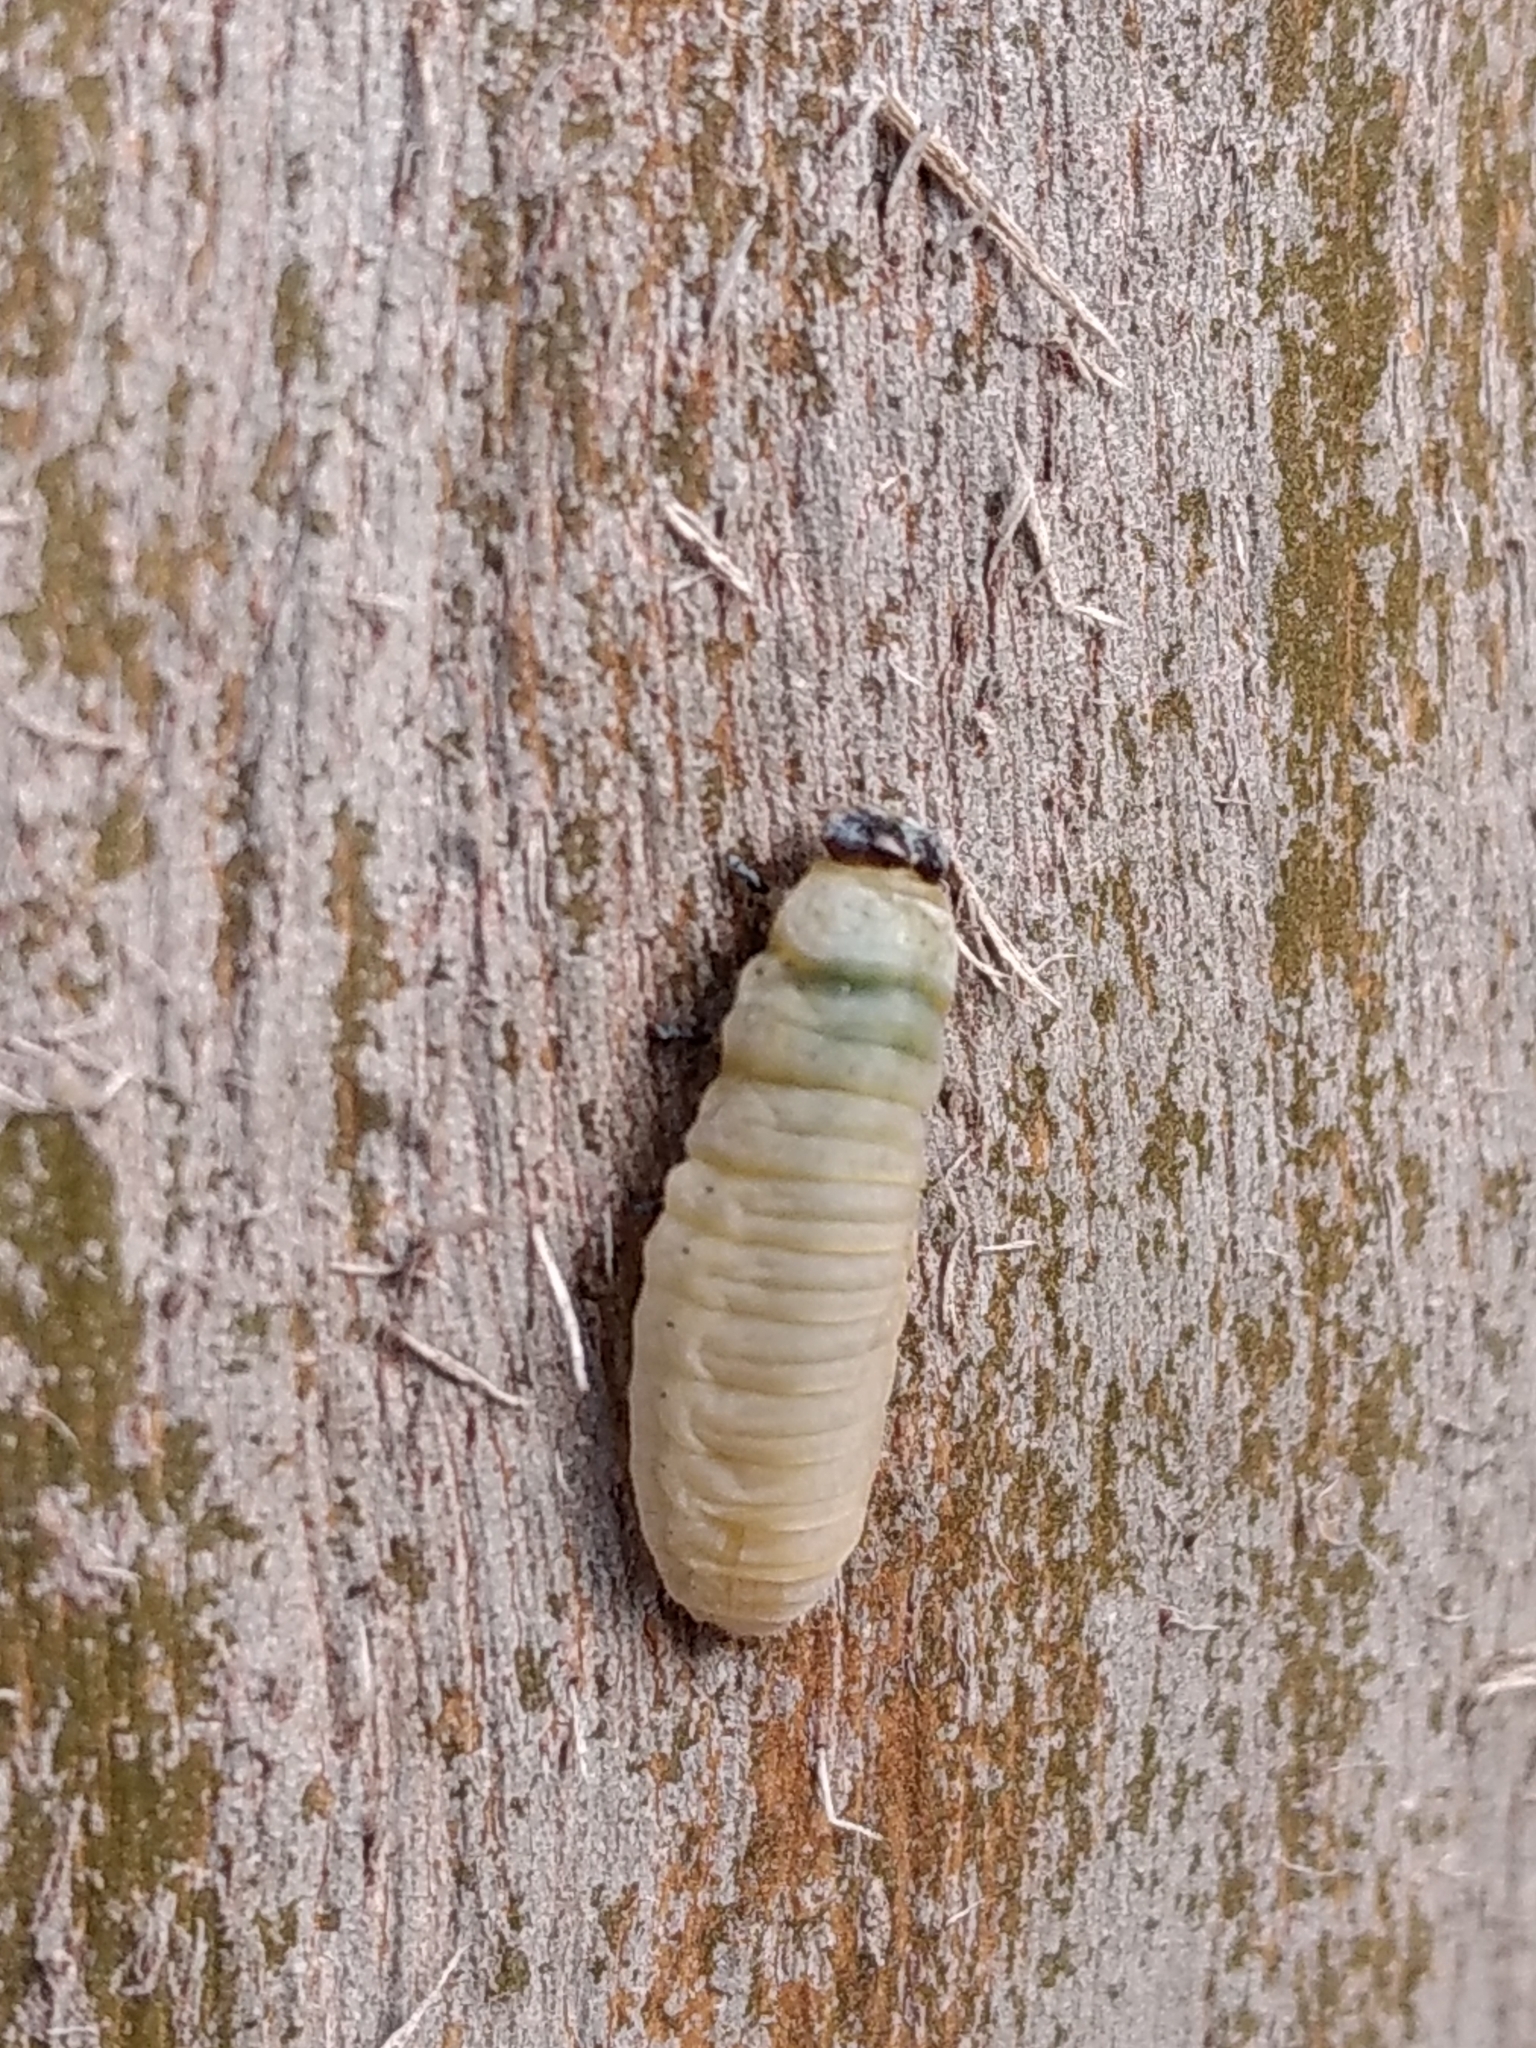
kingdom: Animalia
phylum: Arthropoda
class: Insecta
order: Coleoptera
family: Chrysomelidae
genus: Paropsisterna
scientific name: Paropsisterna m-fuscum
